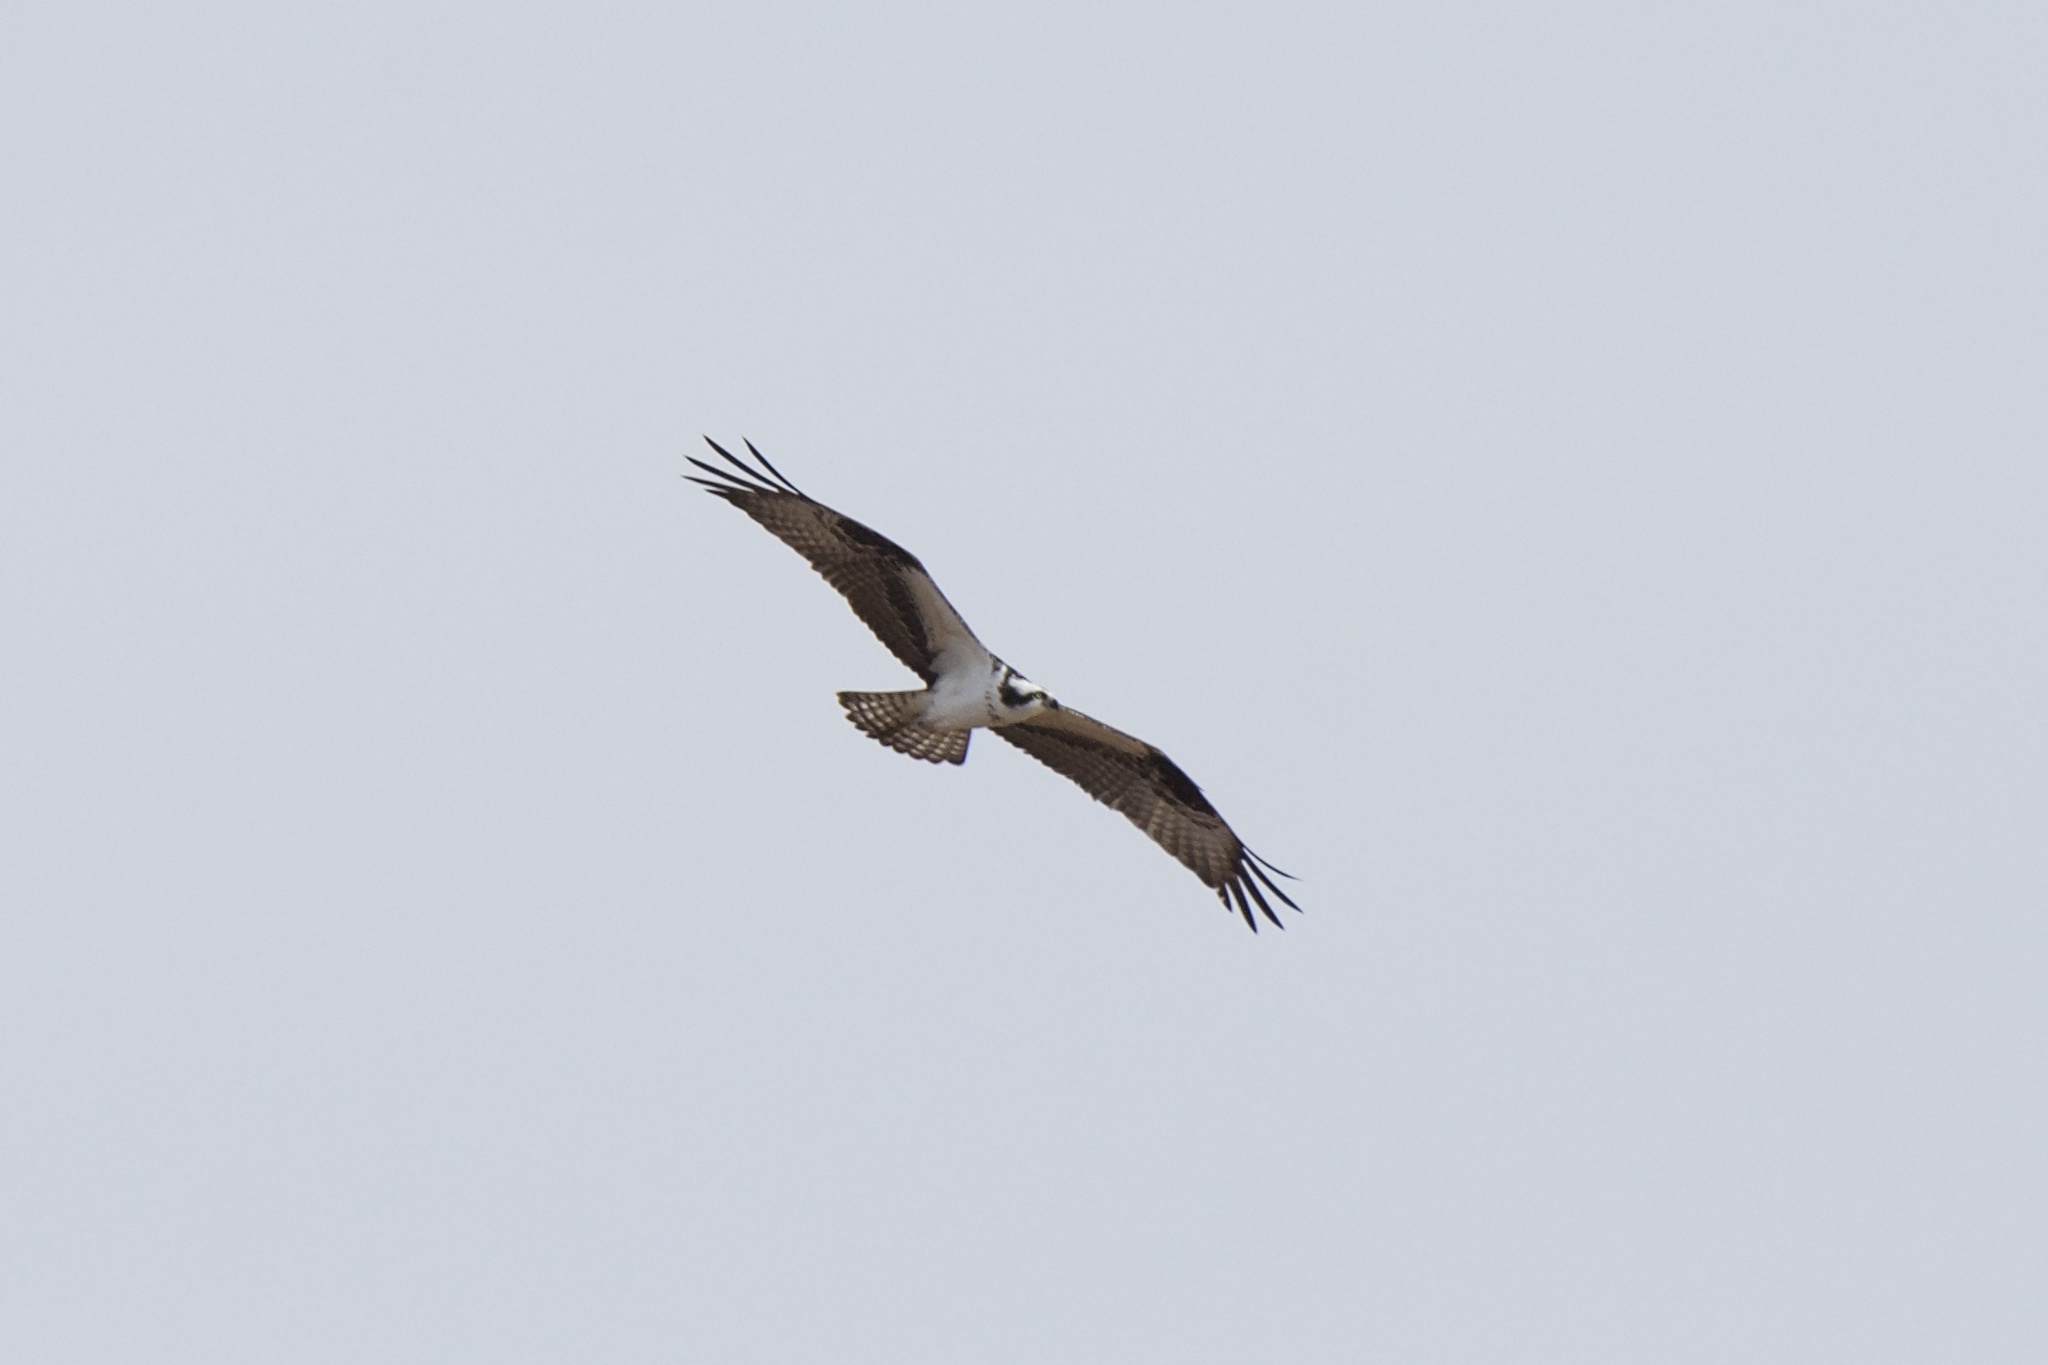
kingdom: Animalia
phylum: Chordata
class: Aves
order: Accipitriformes
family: Pandionidae
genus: Pandion
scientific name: Pandion haliaetus
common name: Osprey
